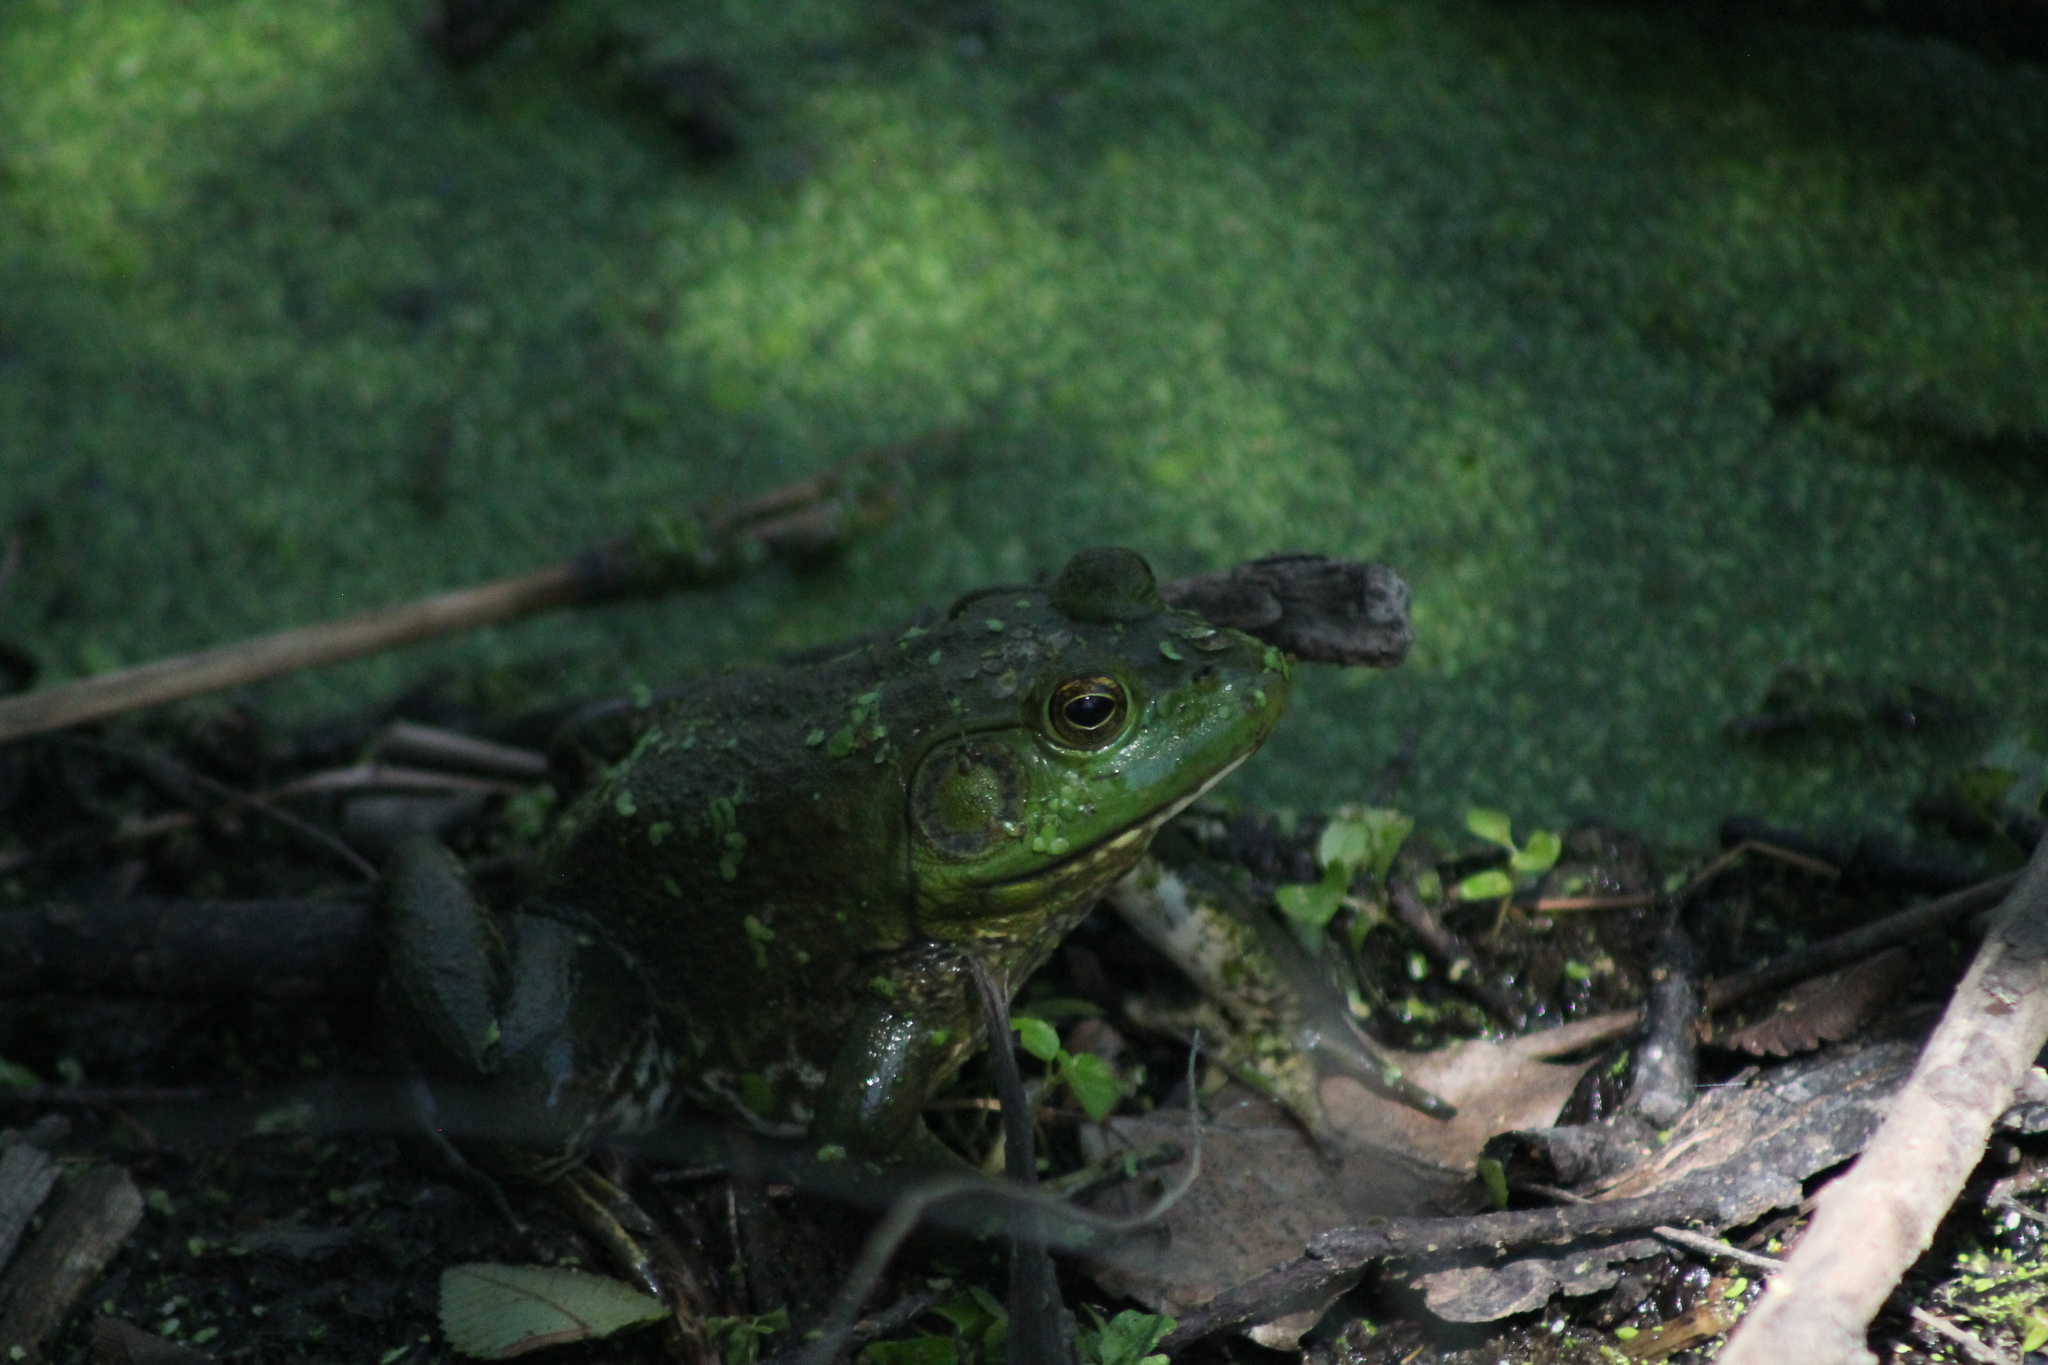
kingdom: Animalia
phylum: Chordata
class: Amphibia
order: Anura
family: Ranidae
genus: Lithobates
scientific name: Lithobates catesbeianus
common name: American bullfrog
